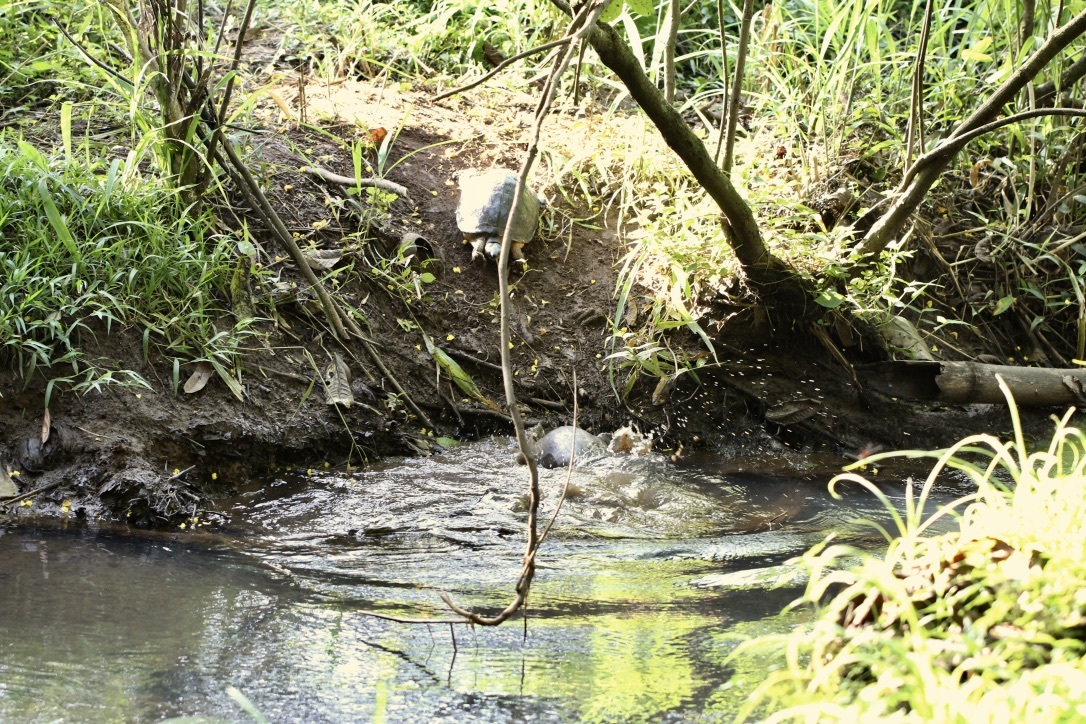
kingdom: Animalia
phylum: Chordata
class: Testudines
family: Geoemydidae
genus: Rhinoclemmys
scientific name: Rhinoclemmys funerea
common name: Black wood turtle
